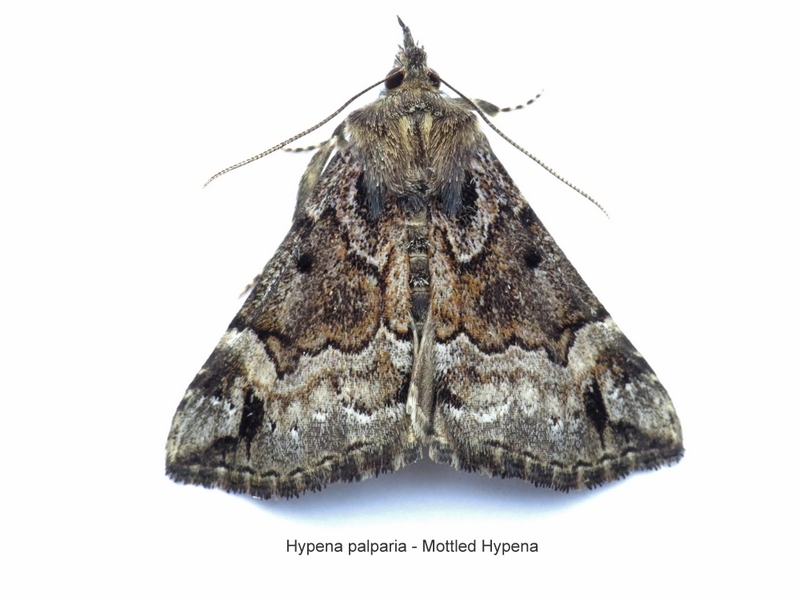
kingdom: Animalia
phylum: Arthropoda
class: Insecta
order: Lepidoptera
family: Erebidae
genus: Hypena
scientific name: Hypena palparia
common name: Mottled bomolocha moth
